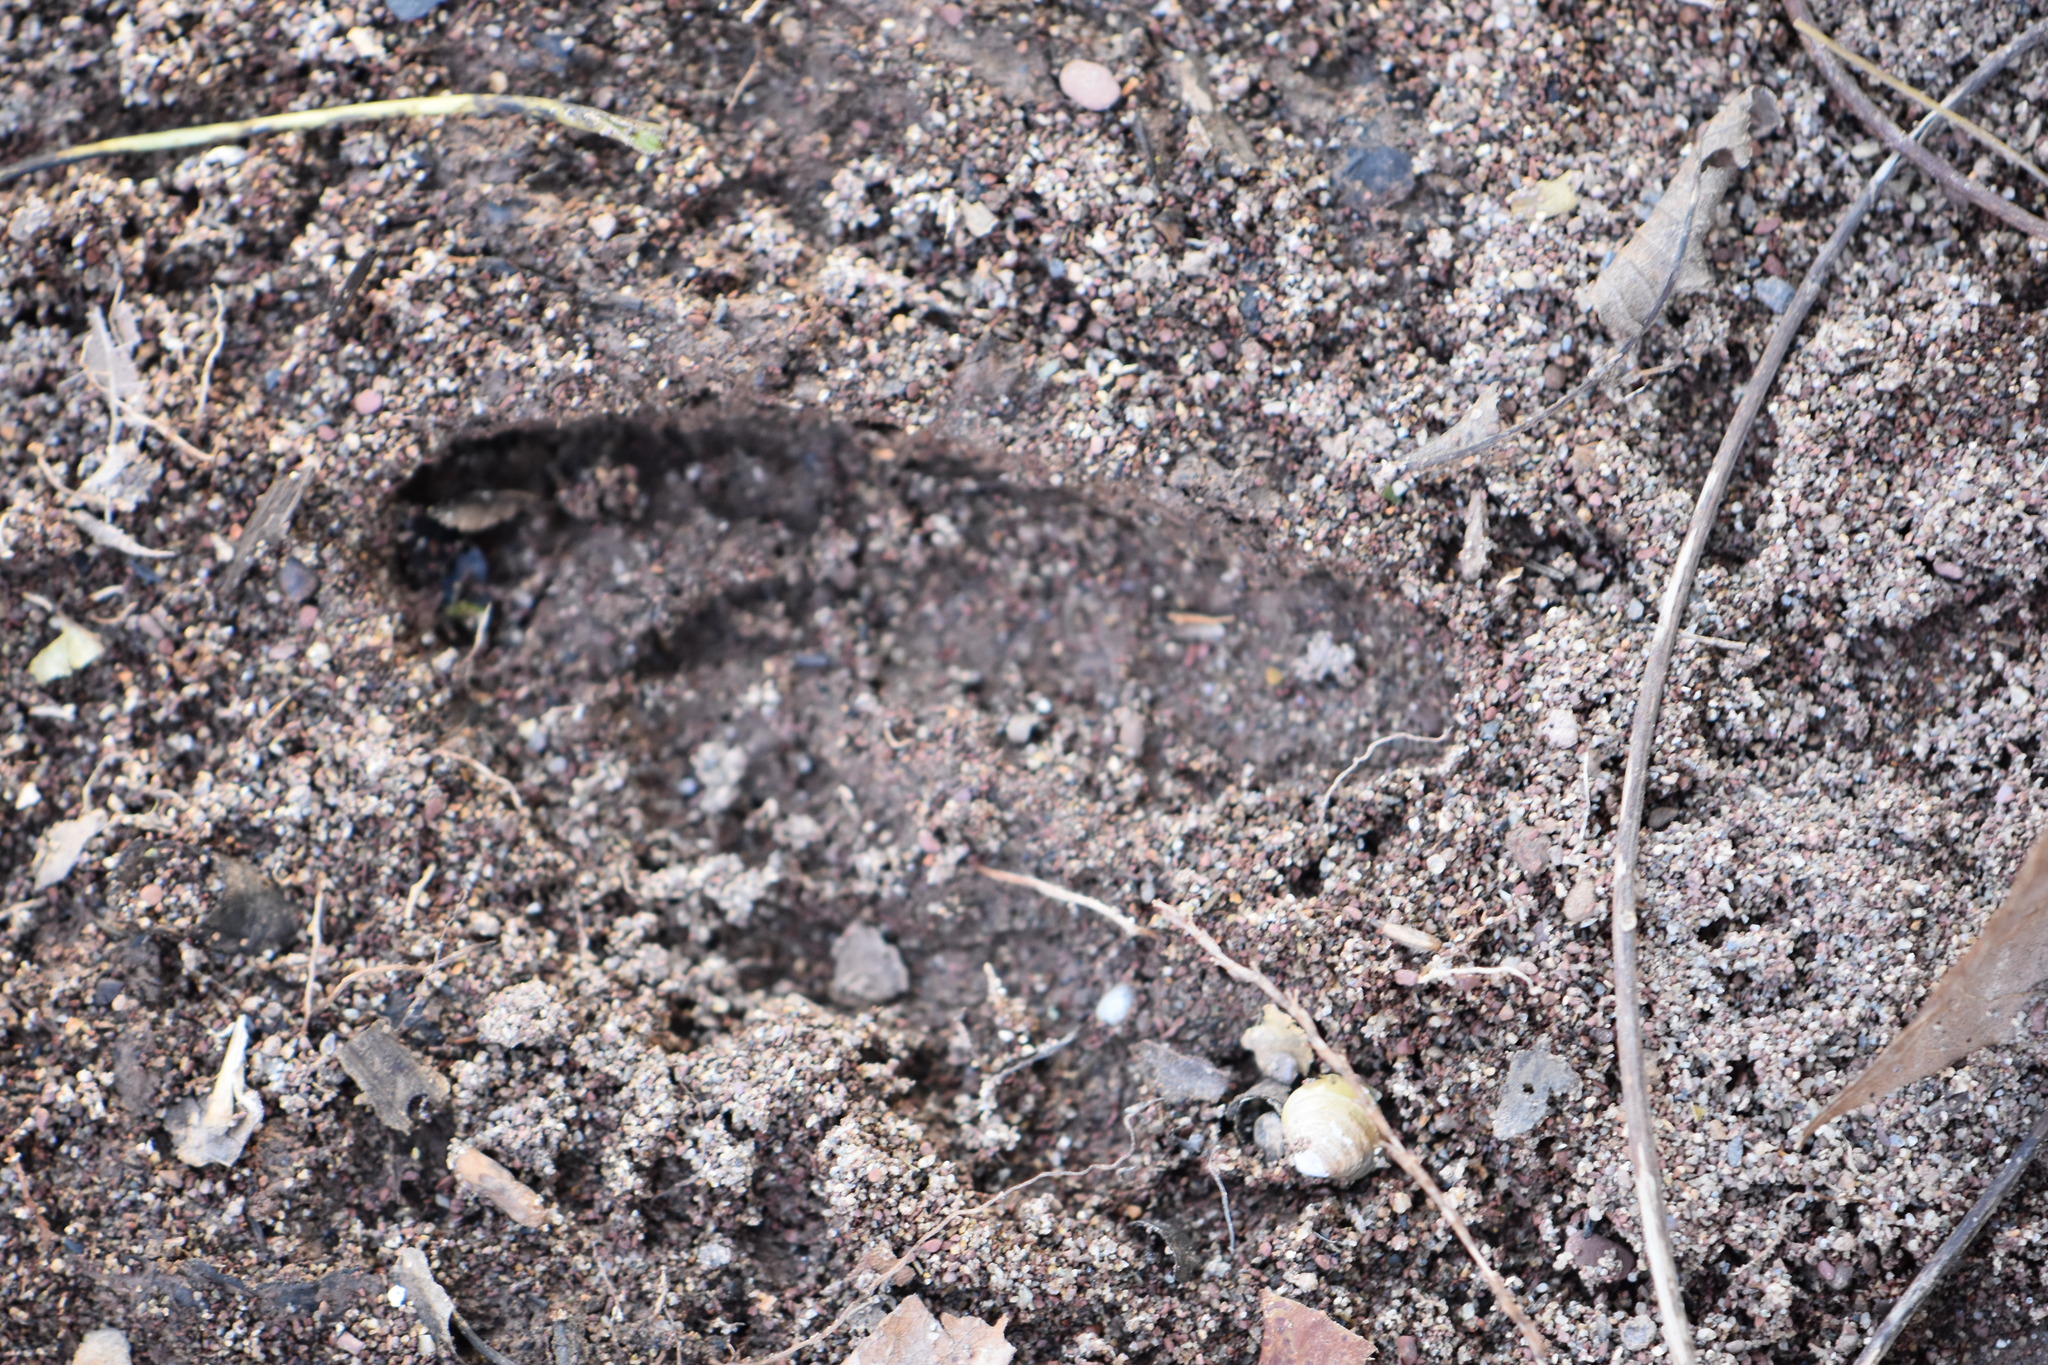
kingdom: Animalia
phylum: Chordata
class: Mammalia
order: Artiodactyla
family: Cervidae
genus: Odocoileus
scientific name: Odocoileus virginianus
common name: White-tailed deer
